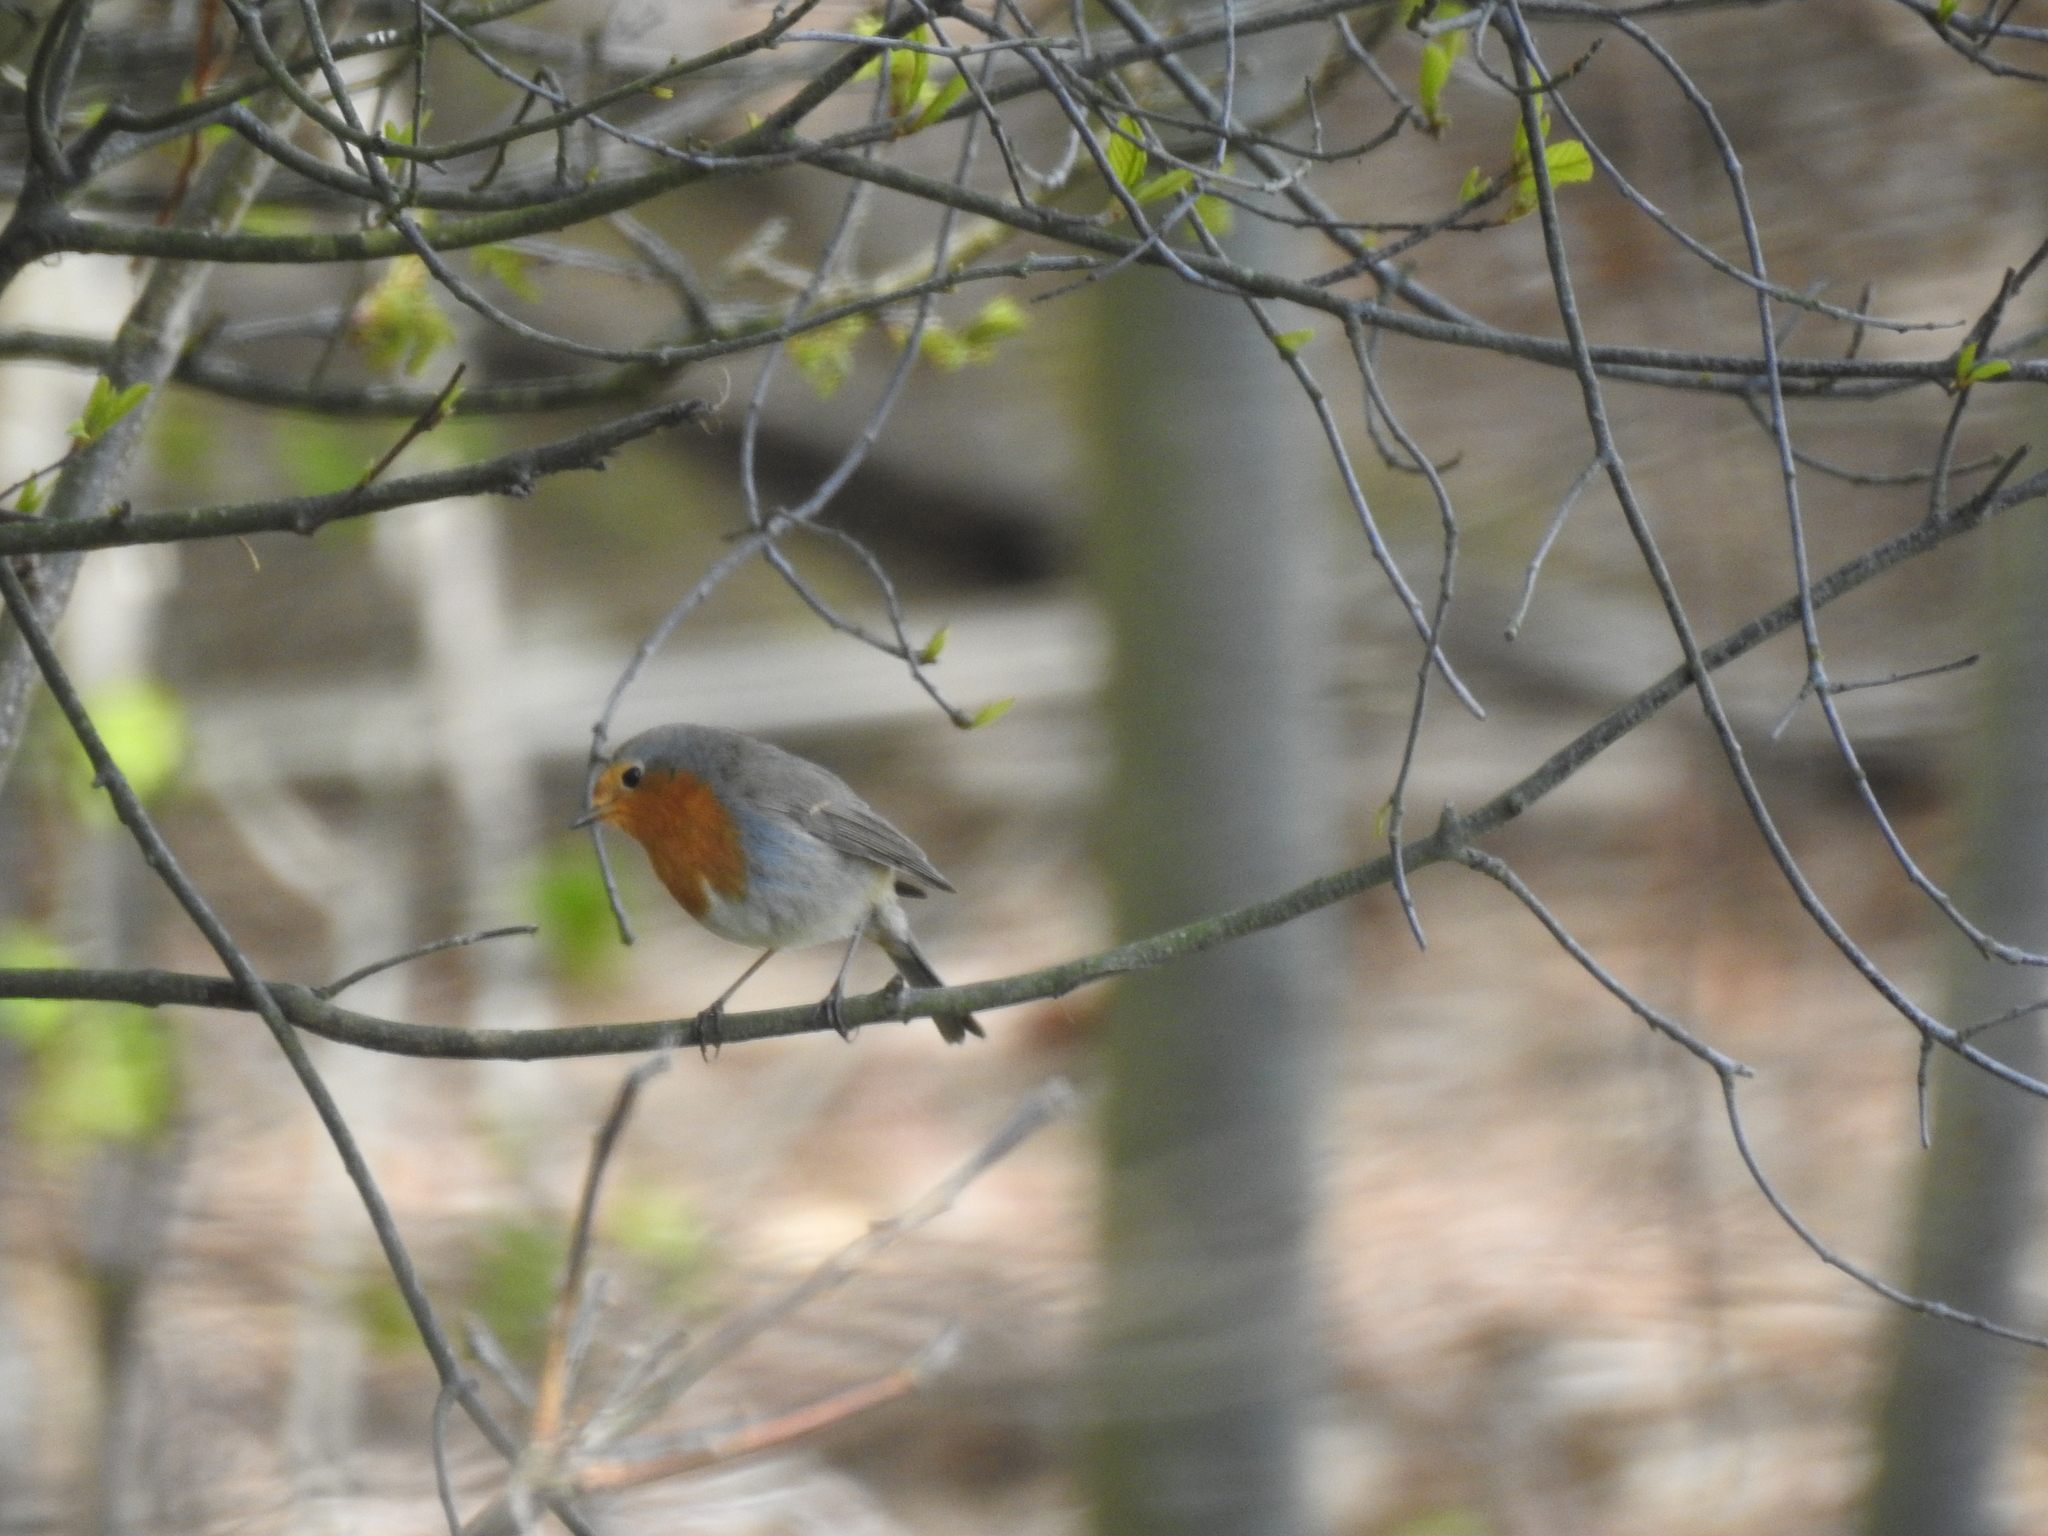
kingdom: Animalia
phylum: Chordata
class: Aves
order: Passeriformes
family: Muscicapidae
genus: Erithacus
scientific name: Erithacus rubecula
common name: European robin
